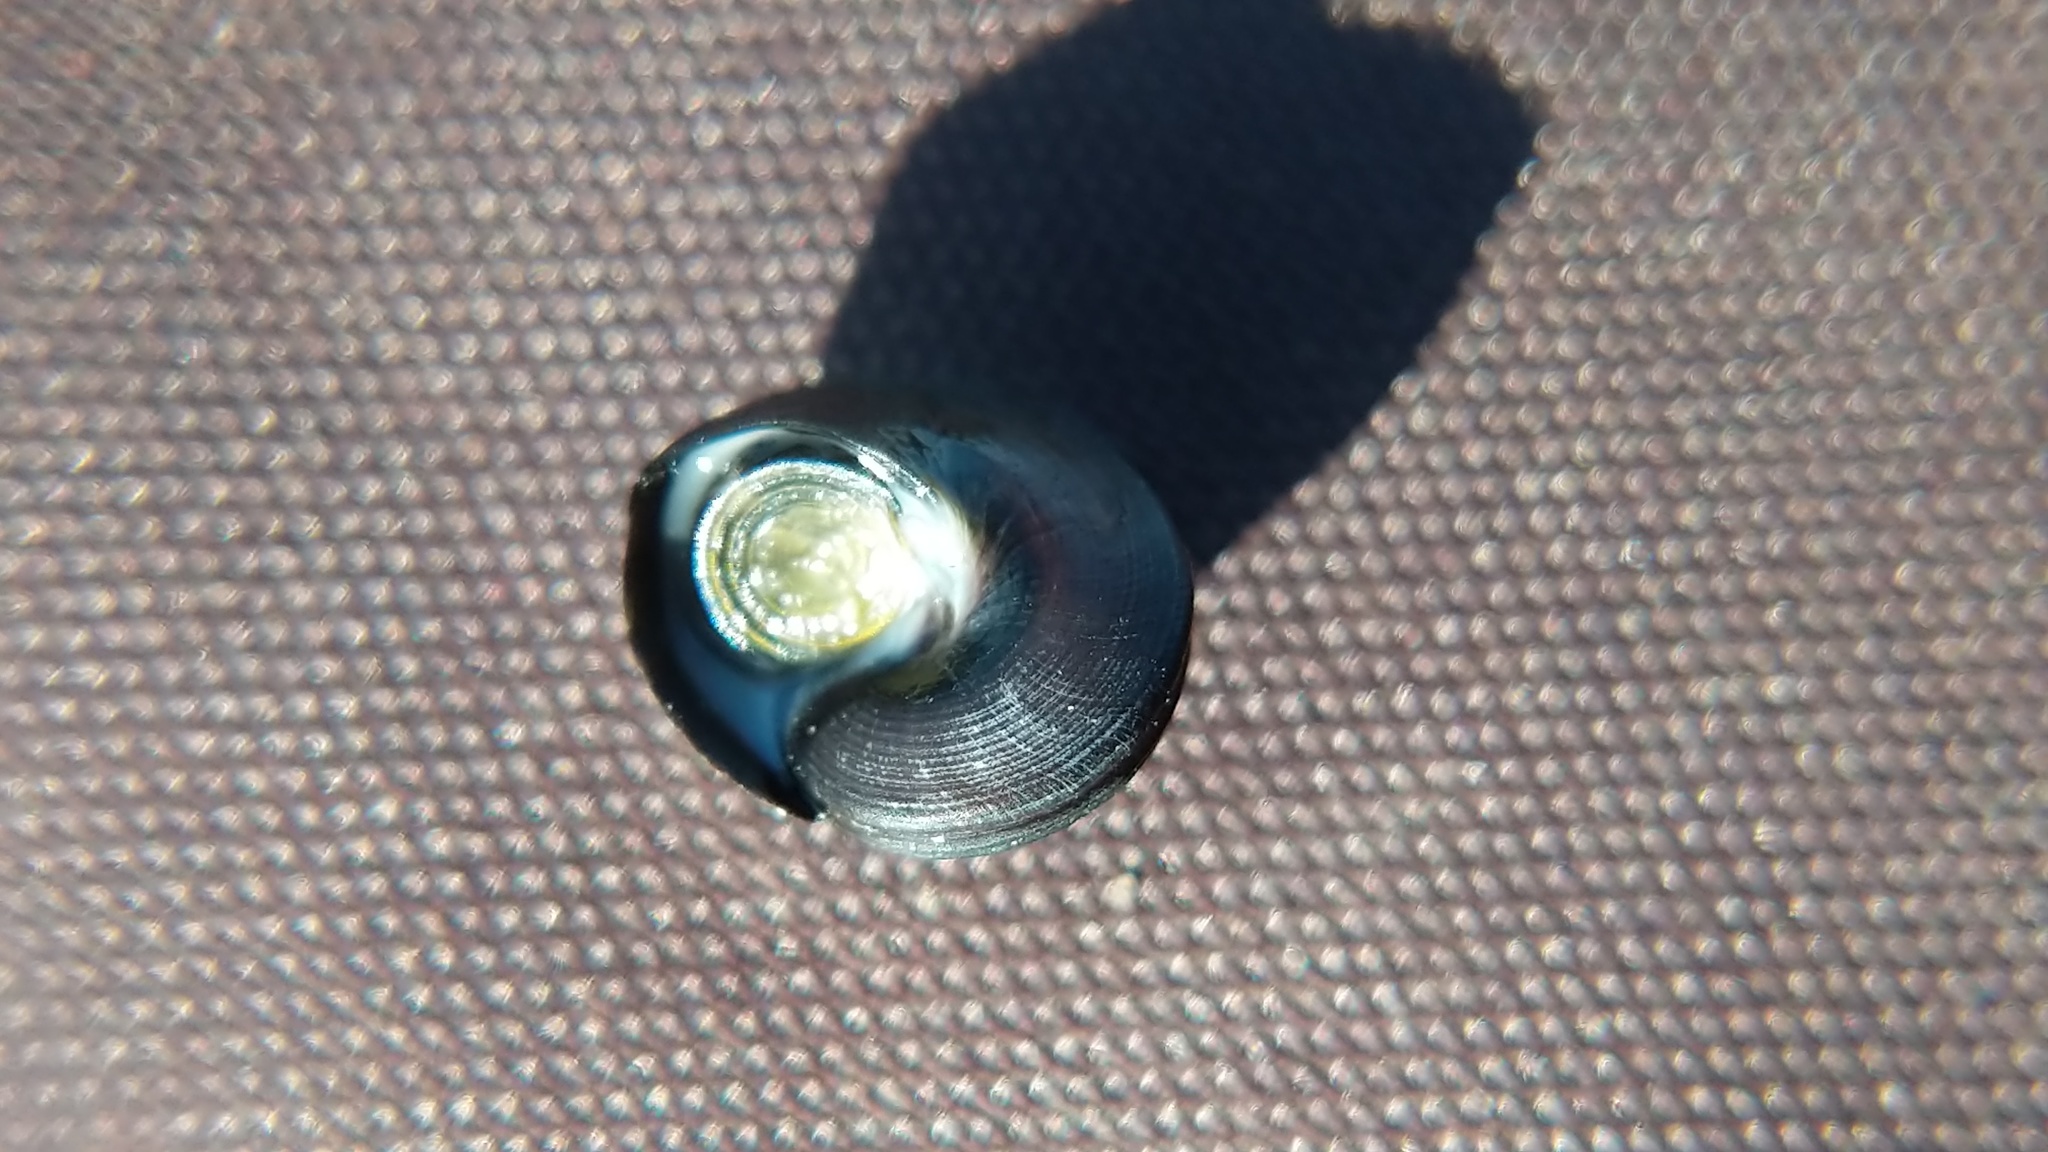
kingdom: Animalia
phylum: Mollusca
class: Gastropoda
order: Trochida
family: Tegulidae
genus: Tegula
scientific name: Tegula funebralis
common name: Black tegula
